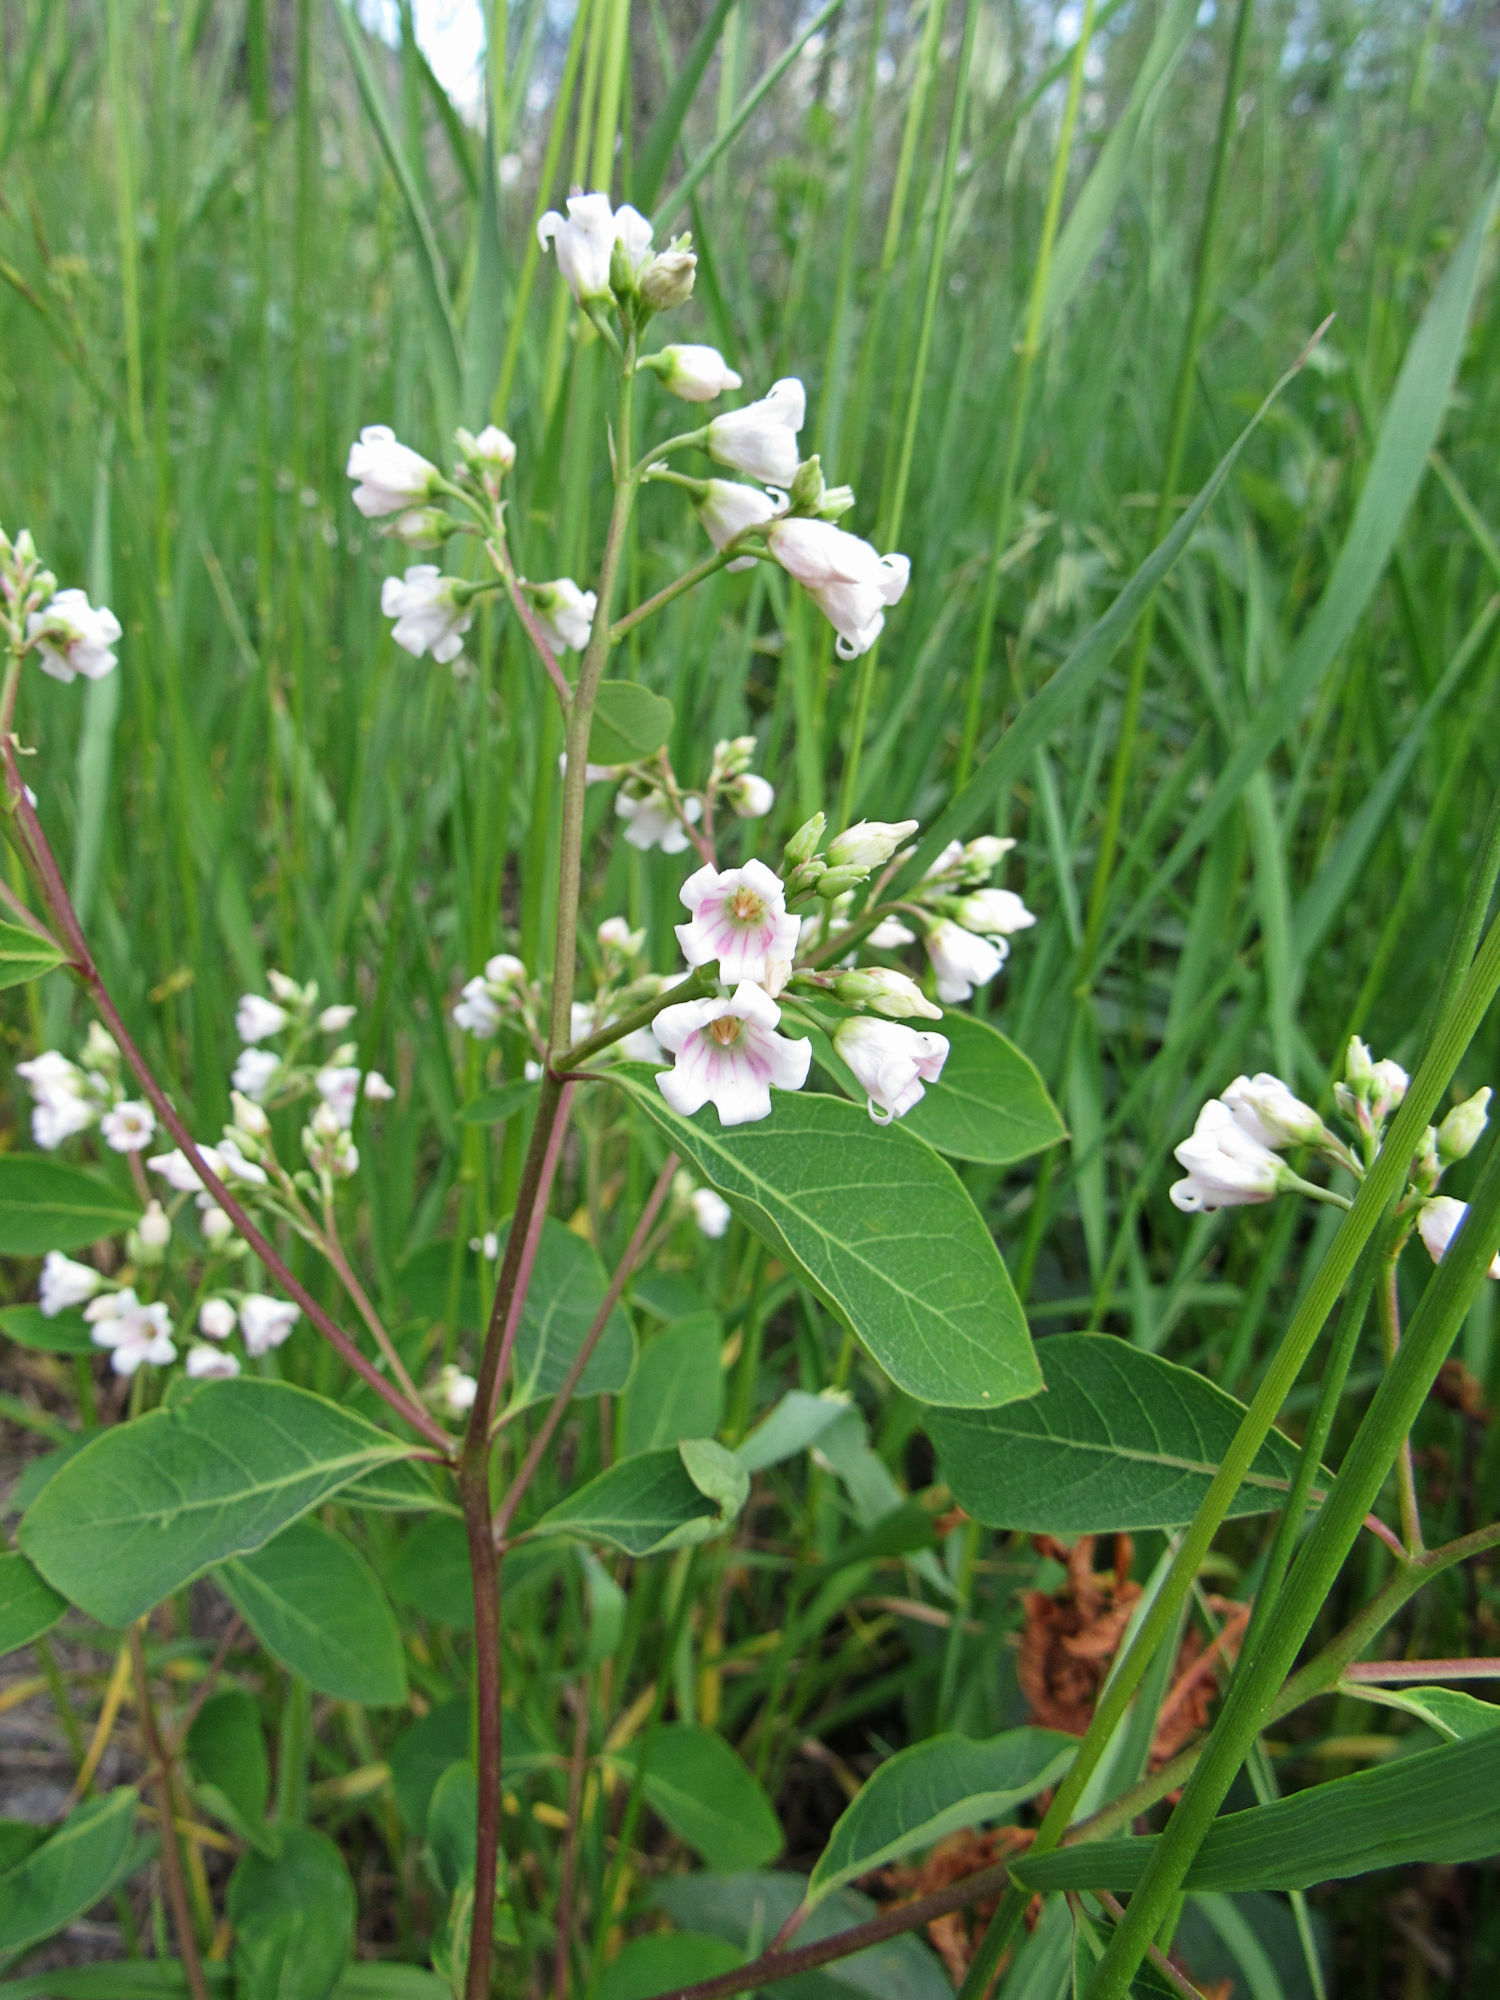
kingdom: Plantae
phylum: Tracheophyta
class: Magnoliopsida
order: Gentianales
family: Apocynaceae
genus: Apocynum
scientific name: Apocynum androsaemifolium
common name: Spreading dogbane
